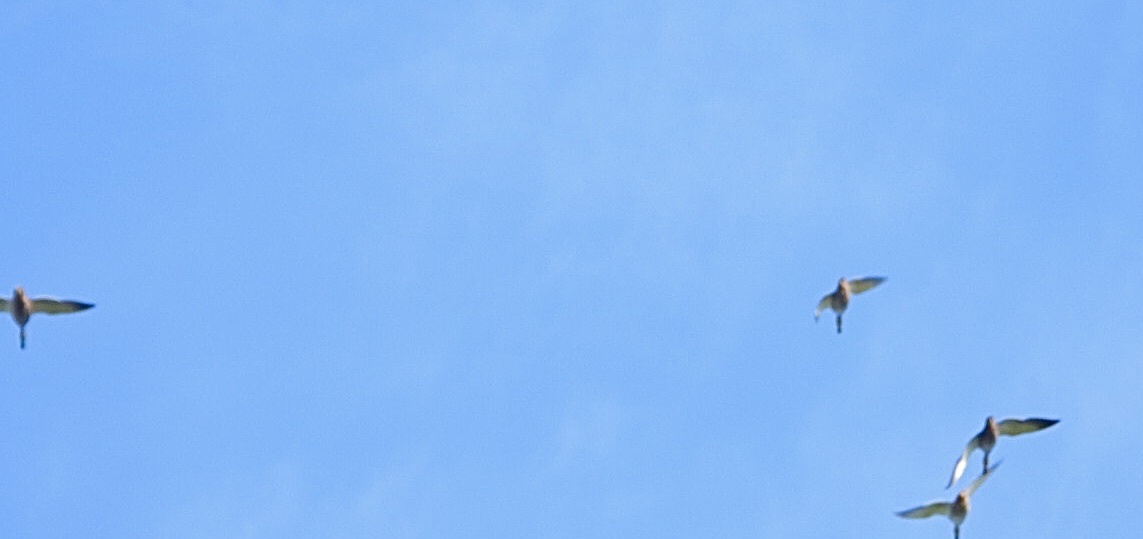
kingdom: Animalia
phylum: Chordata
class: Aves
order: Anseriformes
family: Anatidae
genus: Spatula
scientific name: Spatula clypeata
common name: Northern shoveler
